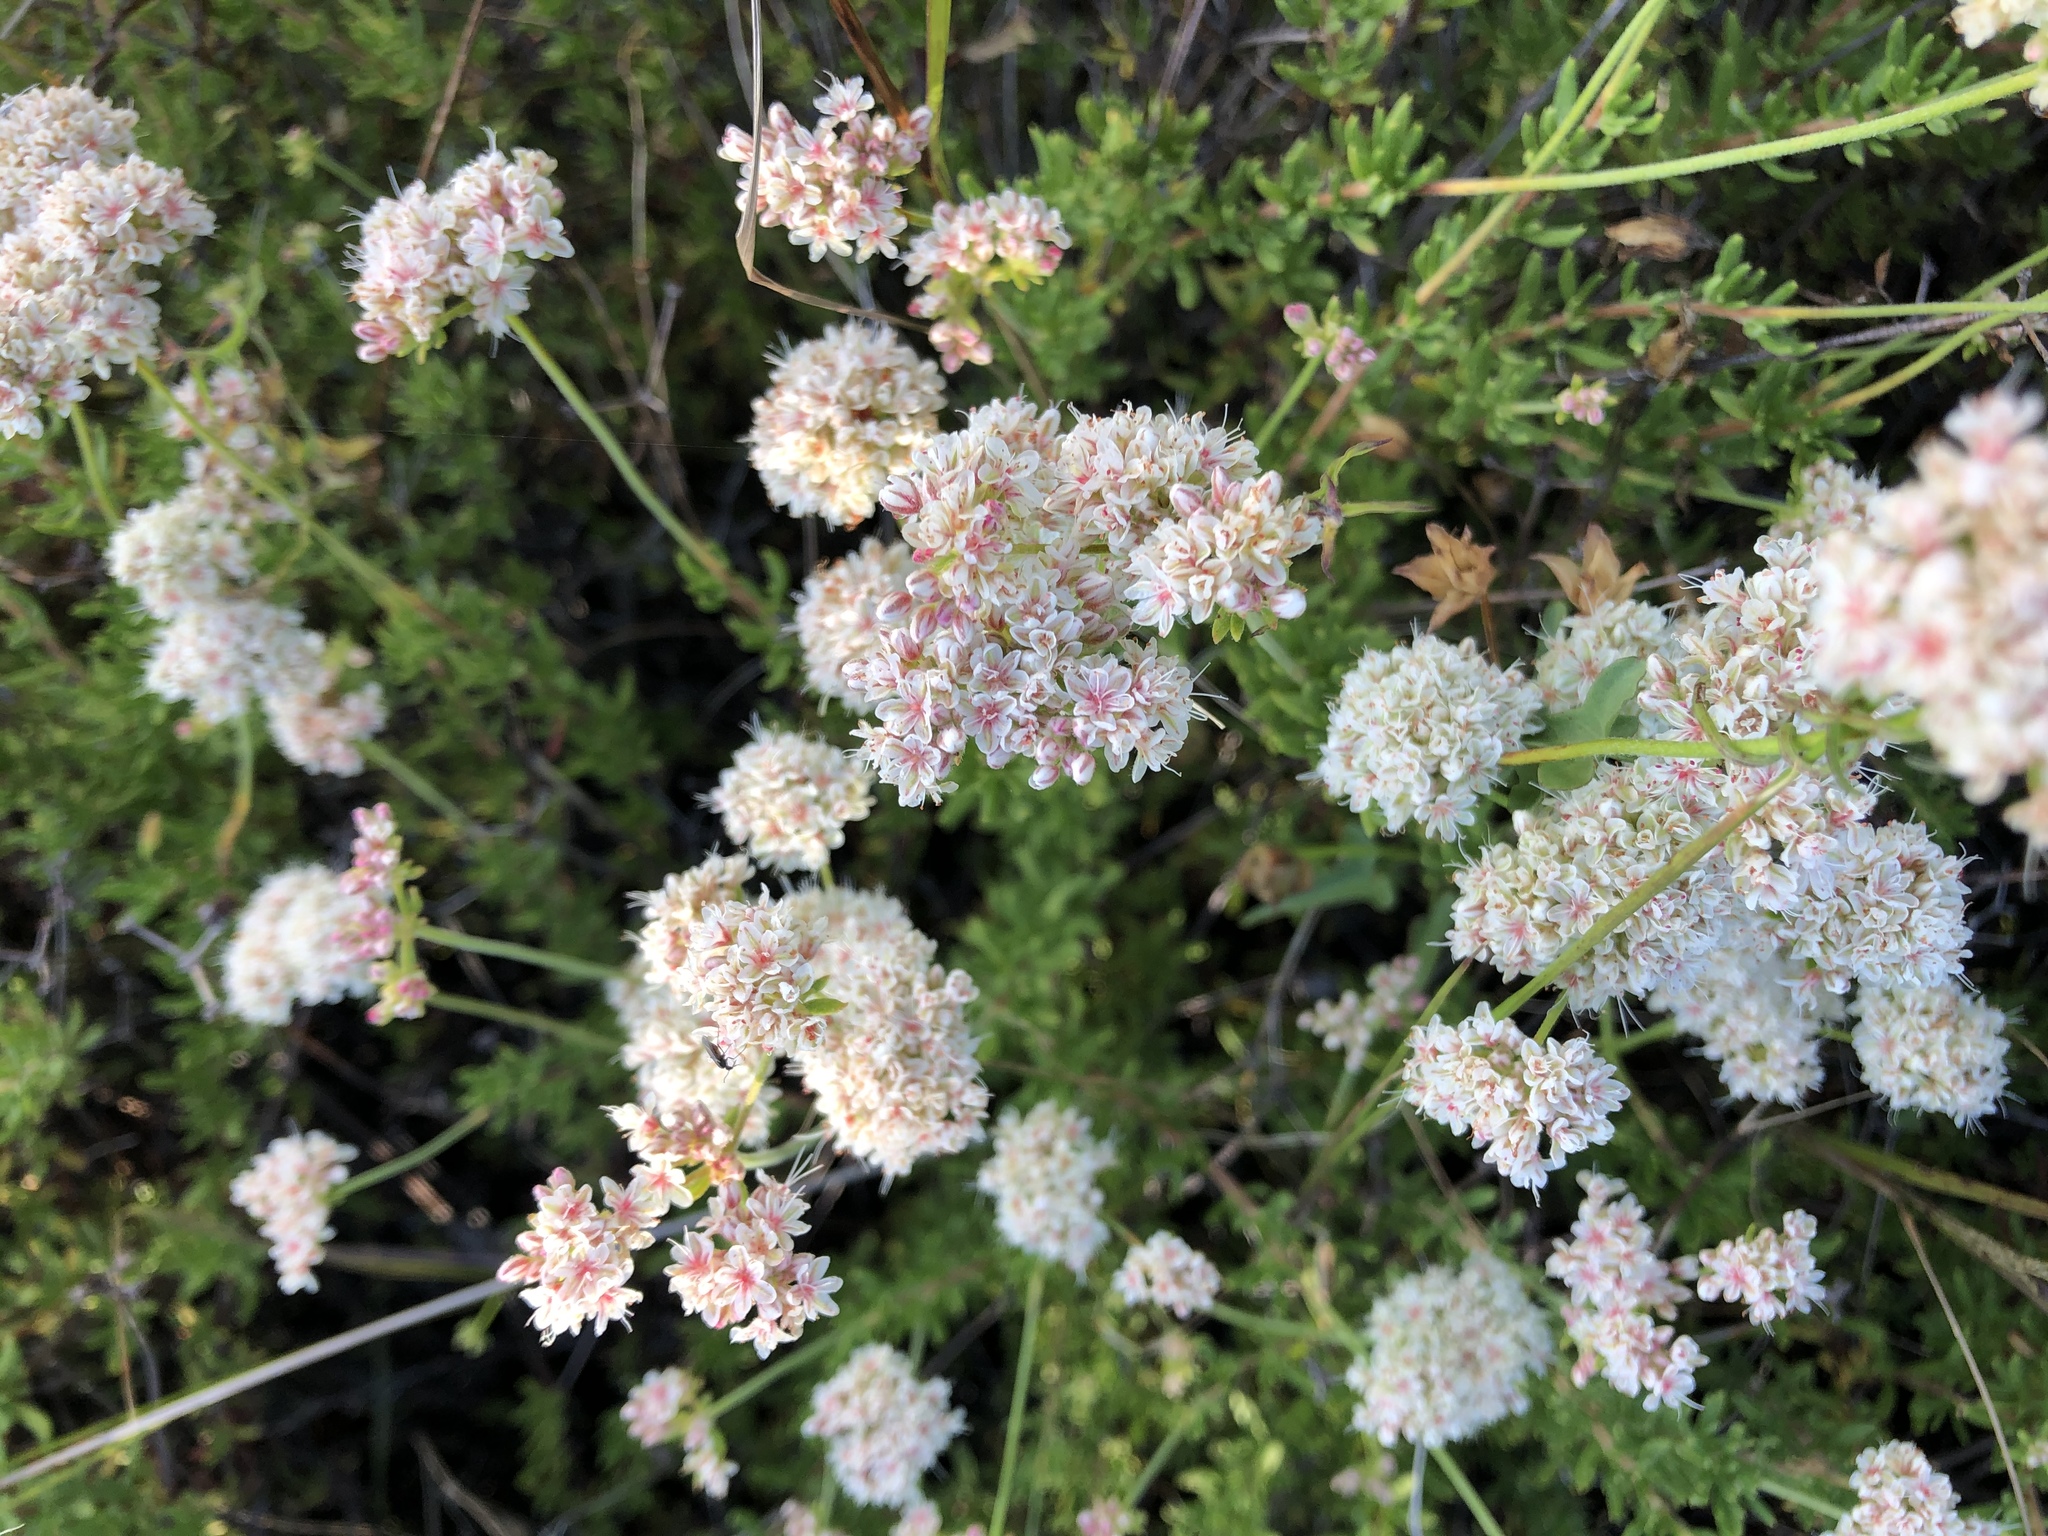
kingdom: Plantae
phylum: Tracheophyta
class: Magnoliopsida
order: Caryophyllales
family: Polygonaceae
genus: Eriogonum
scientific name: Eriogonum fasciculatum
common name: California wild buckwheat
